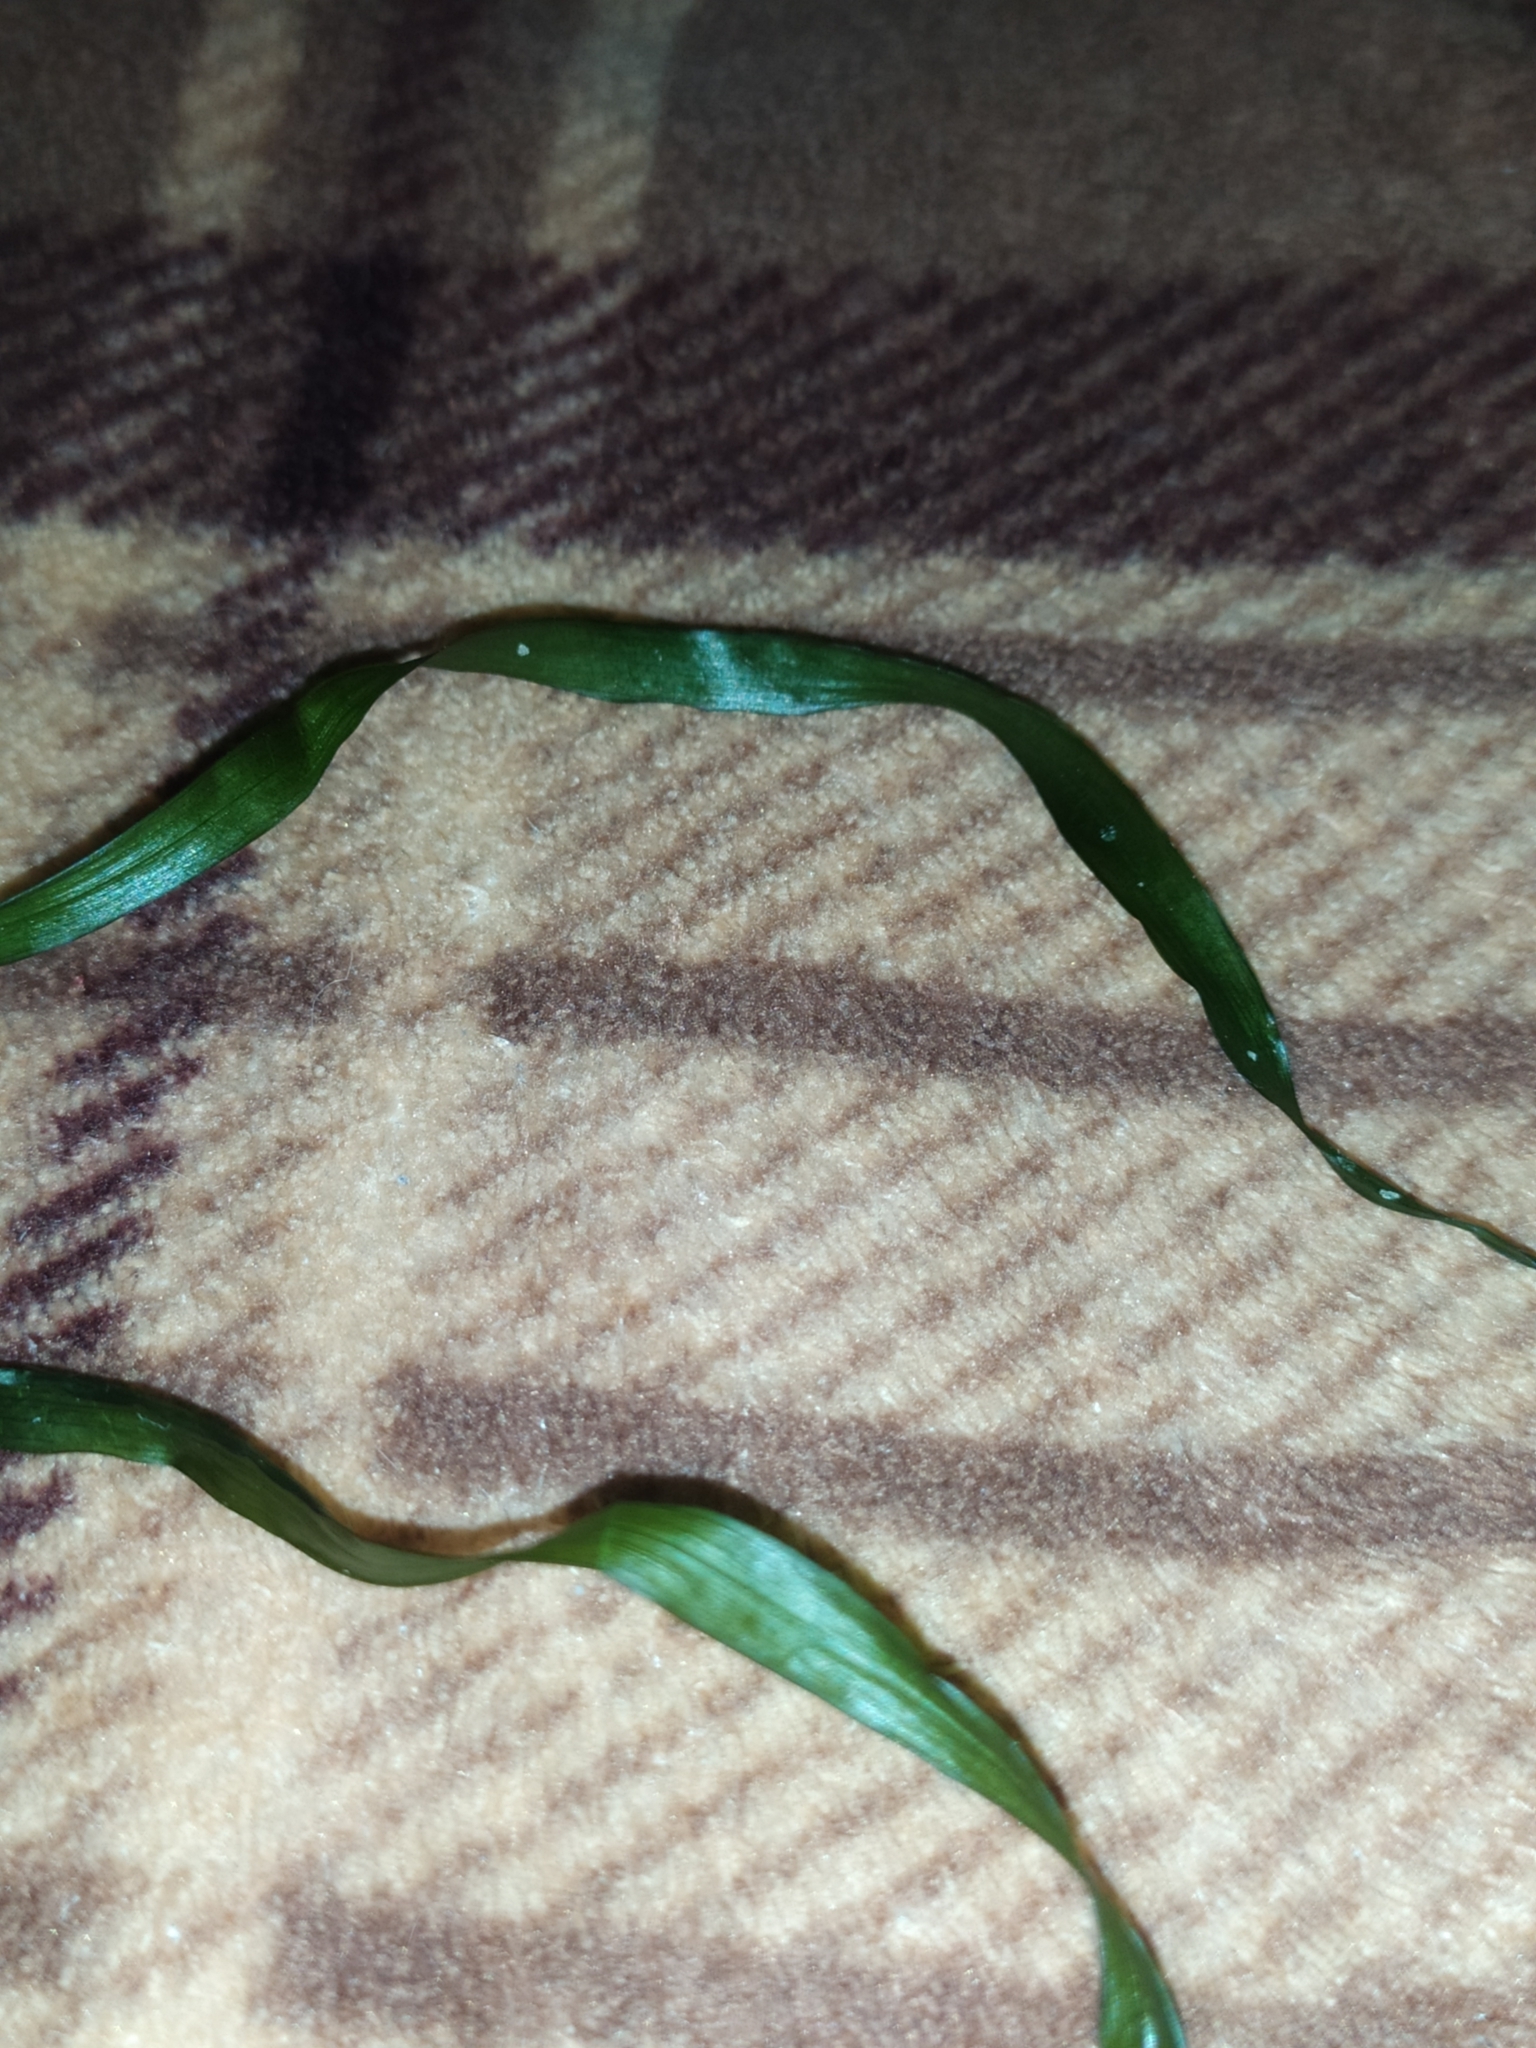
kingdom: Plantae
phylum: Tracheophyta
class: Liliopsida
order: Alismatales
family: Zosteraceae
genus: Zostera
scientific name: Zostera marina
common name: Eelgrass
